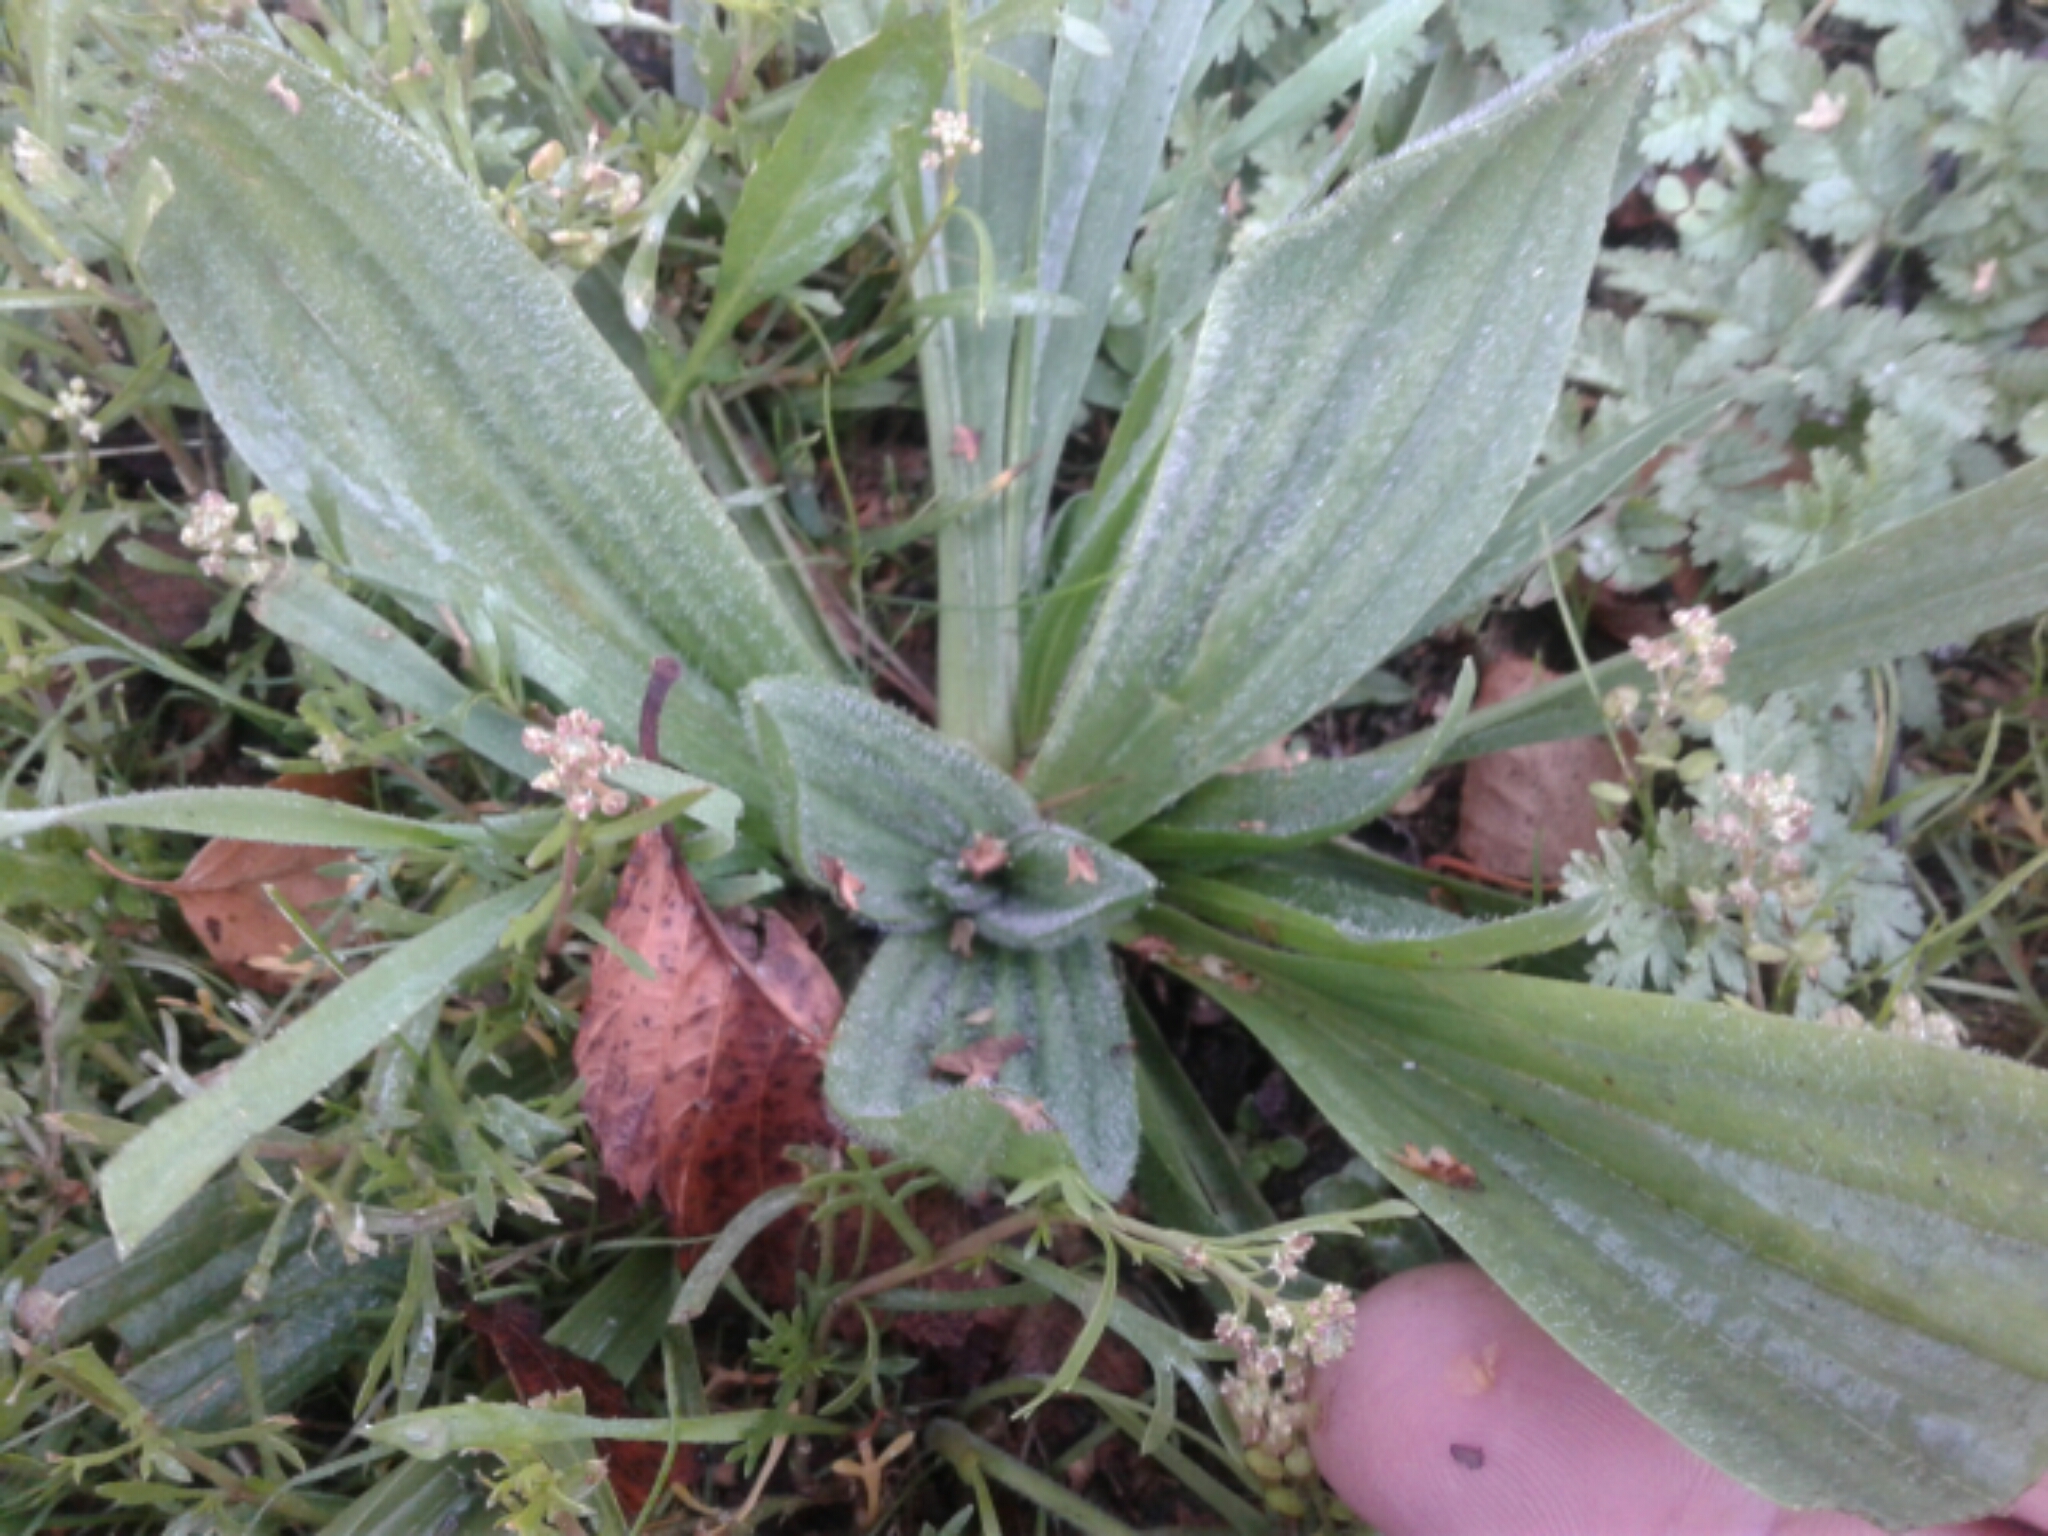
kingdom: Plantae
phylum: Tracheophyta
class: Magnoliopsida
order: Lamiales
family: Plantaginaceae
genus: Plantago
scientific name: Plantago lanceolata
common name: Ribwort plantain
